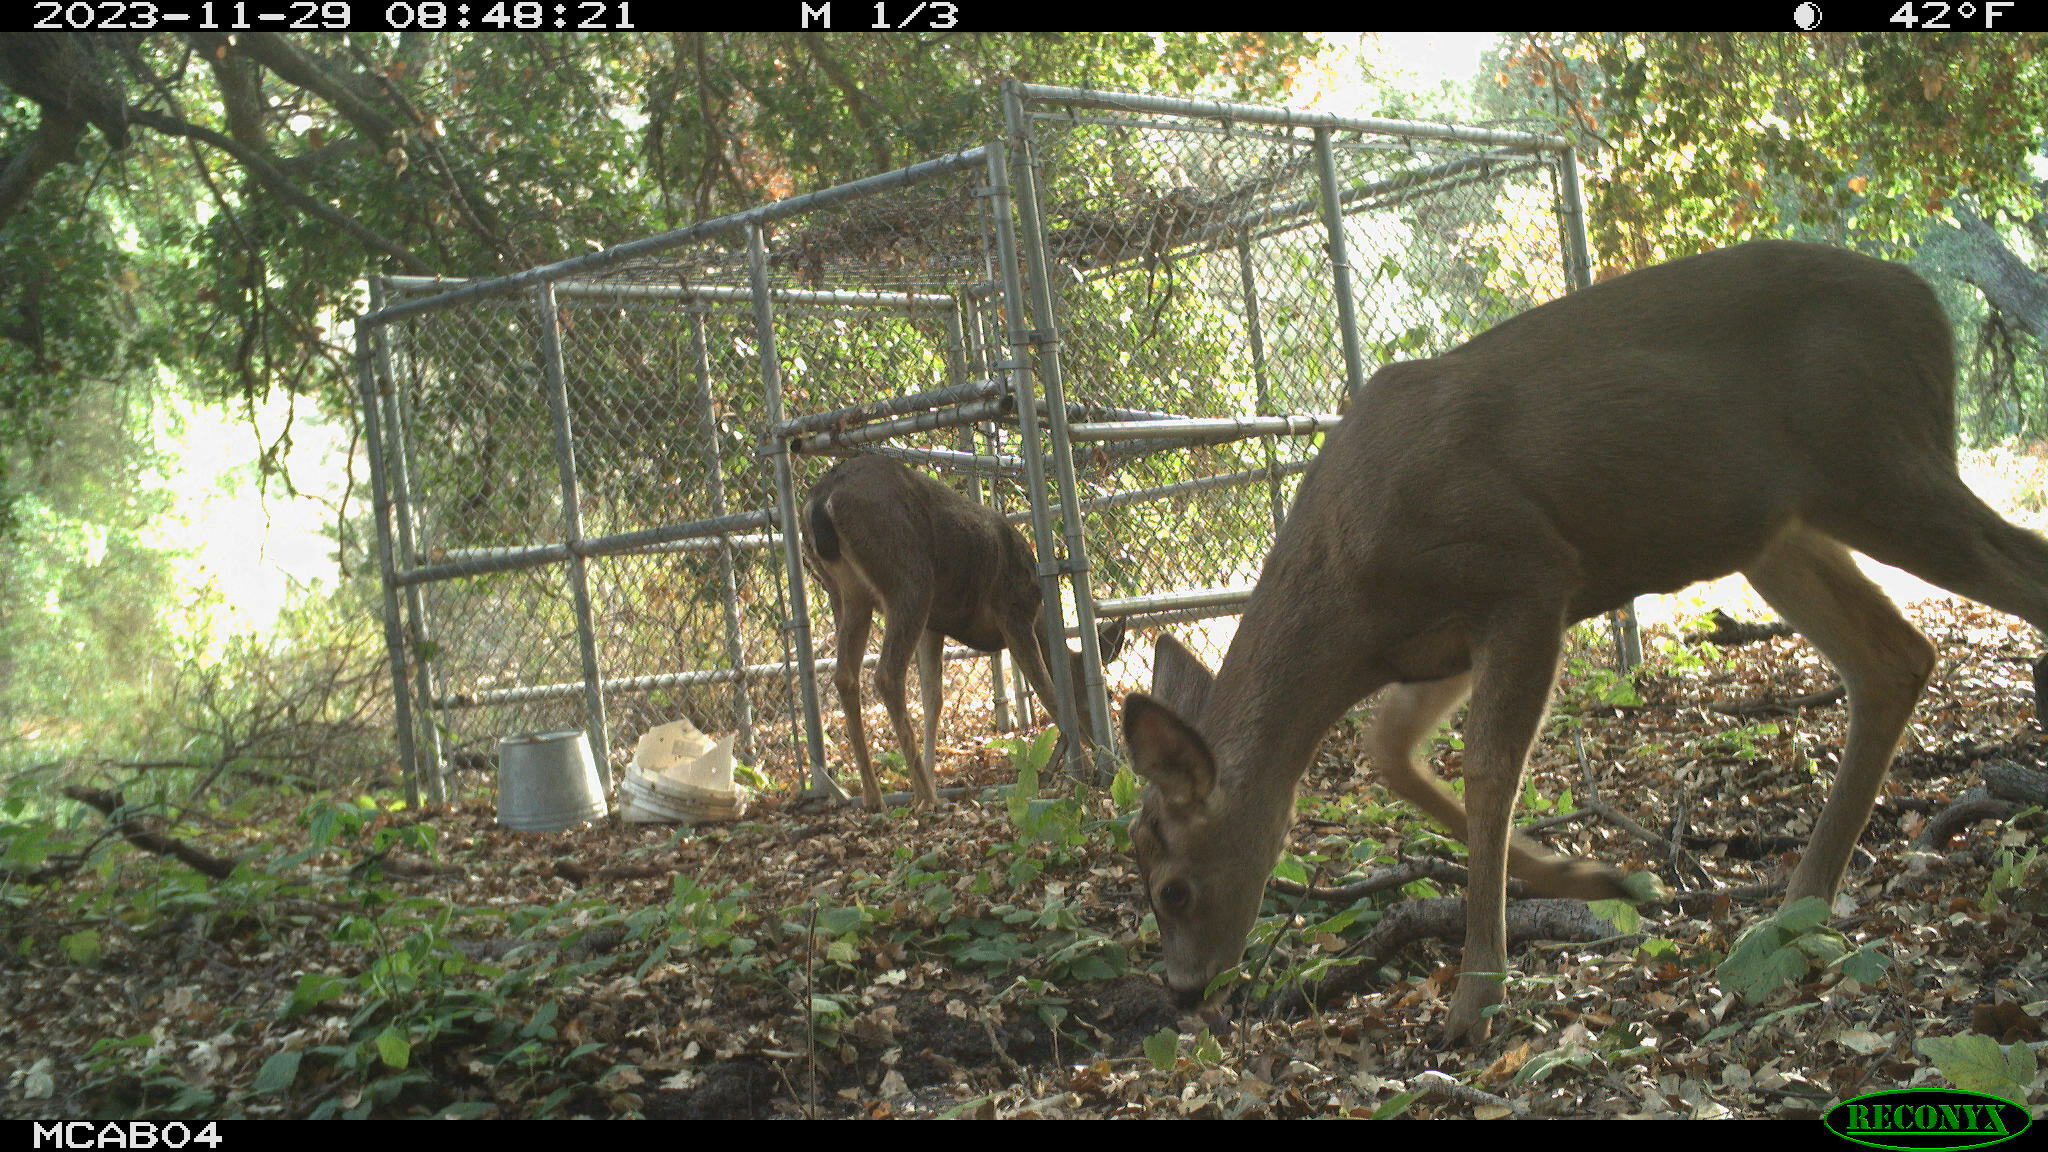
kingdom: Animalia
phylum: Chordata
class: Mammalia
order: Artiodactyla
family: Cervidae
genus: Odocoileus
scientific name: Odocoileus hemionus
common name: Mule deer
